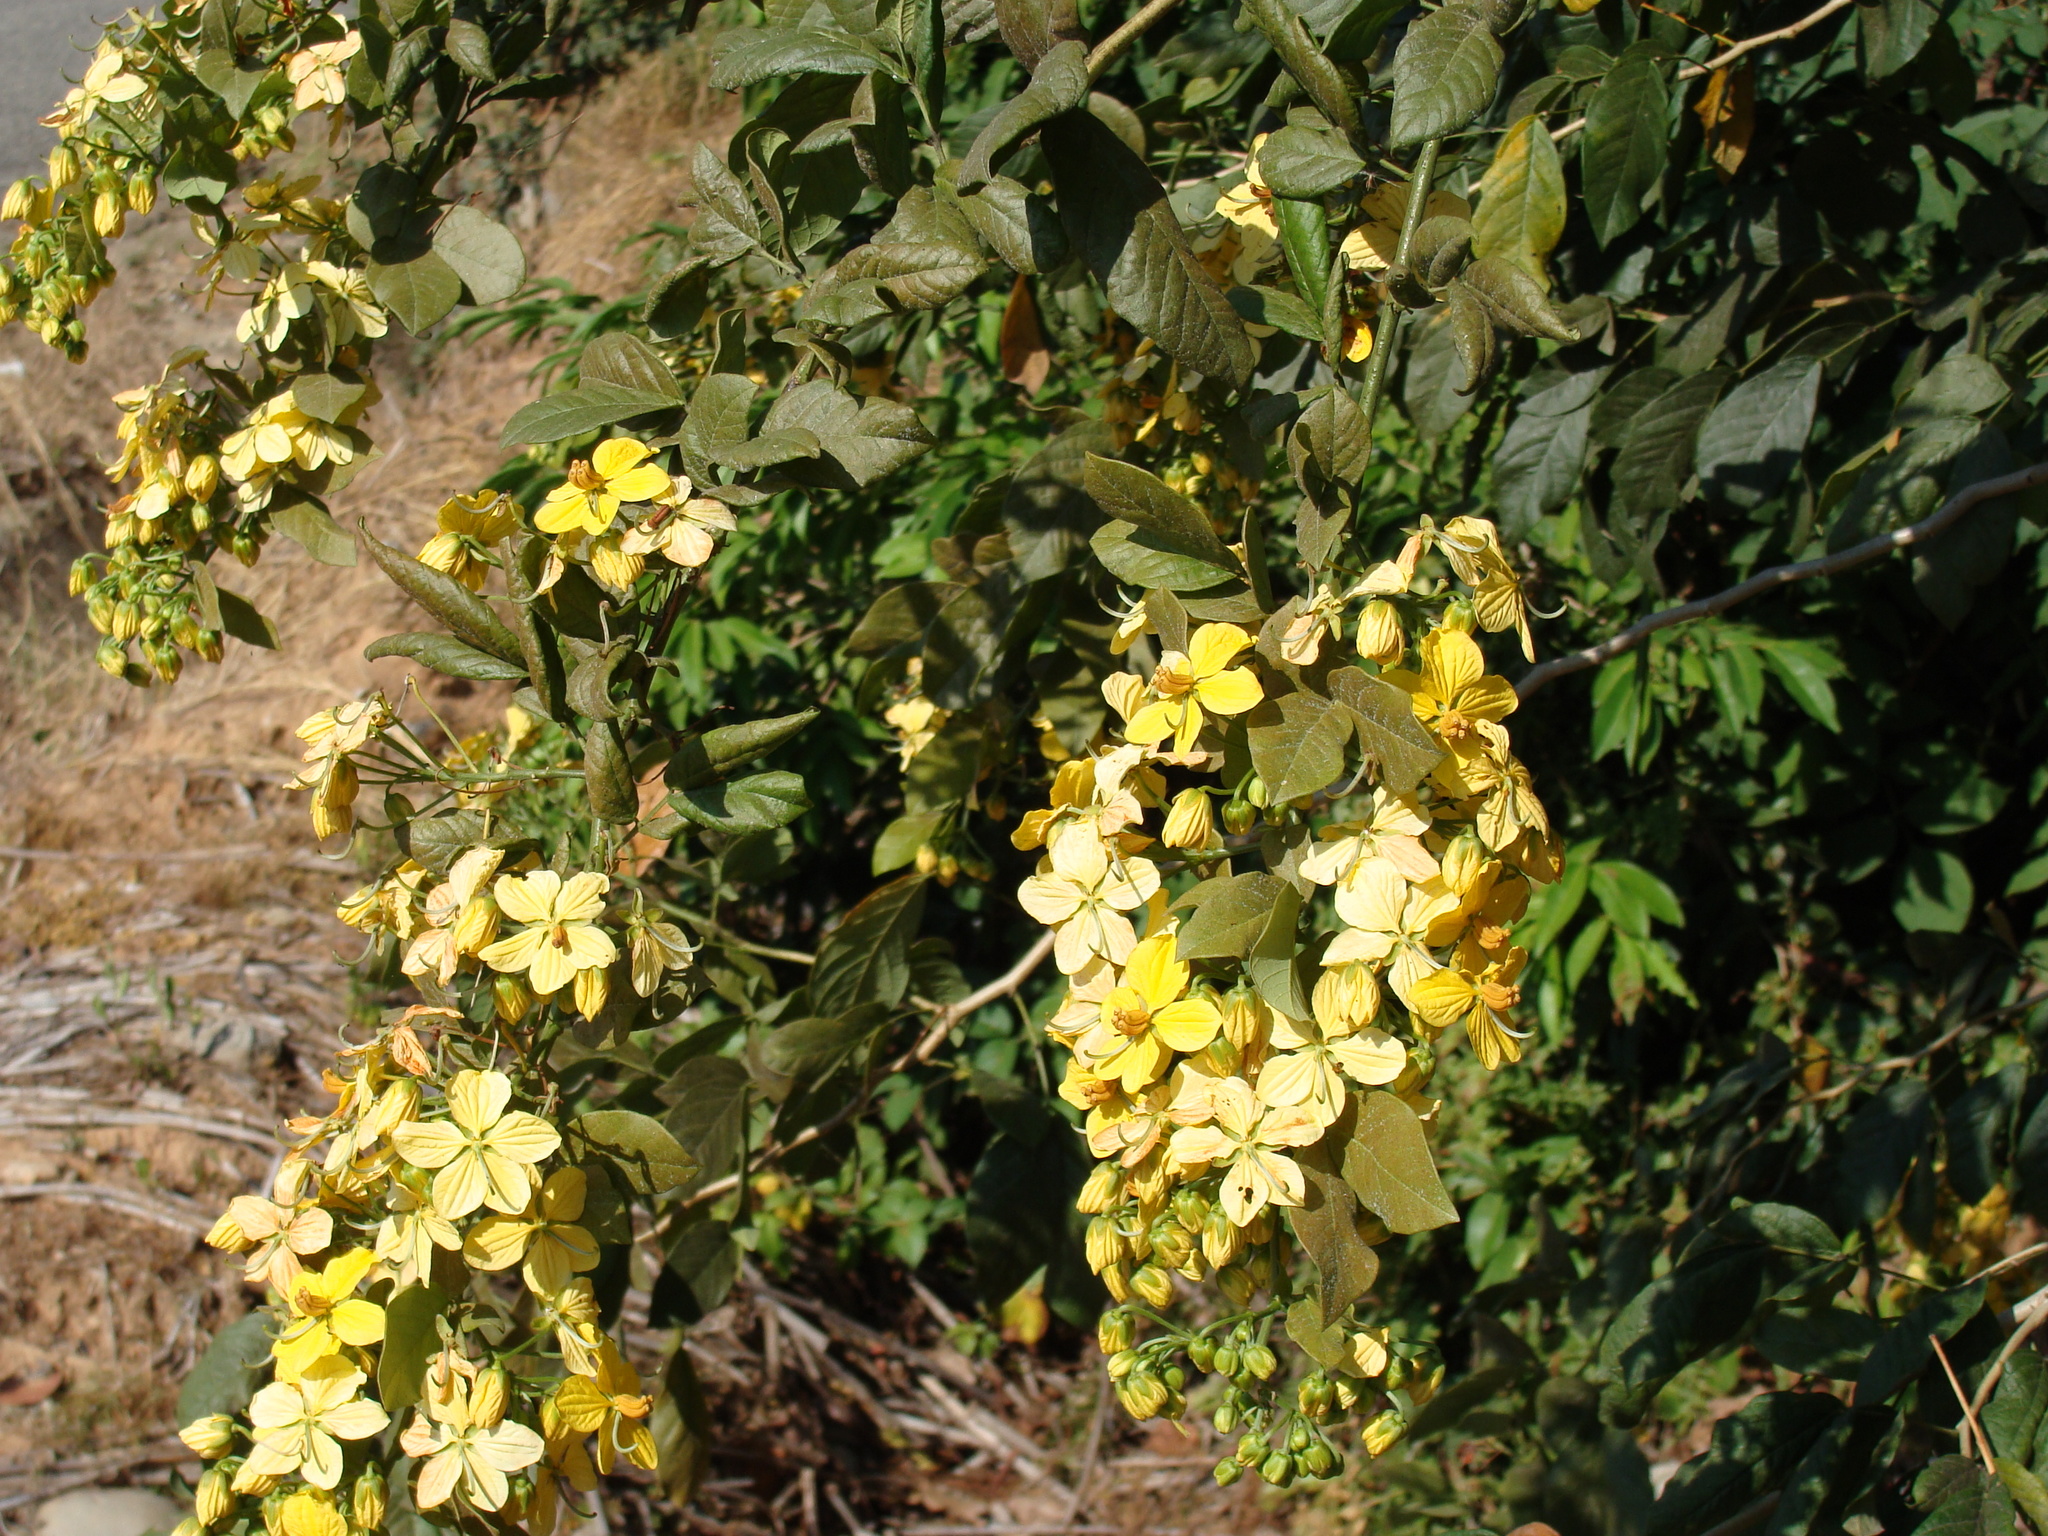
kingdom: Plantae
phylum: Tracheophyta
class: Magnoliopsida
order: Fabales
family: Fabaceae
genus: Senna
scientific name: Senna hayesiana
